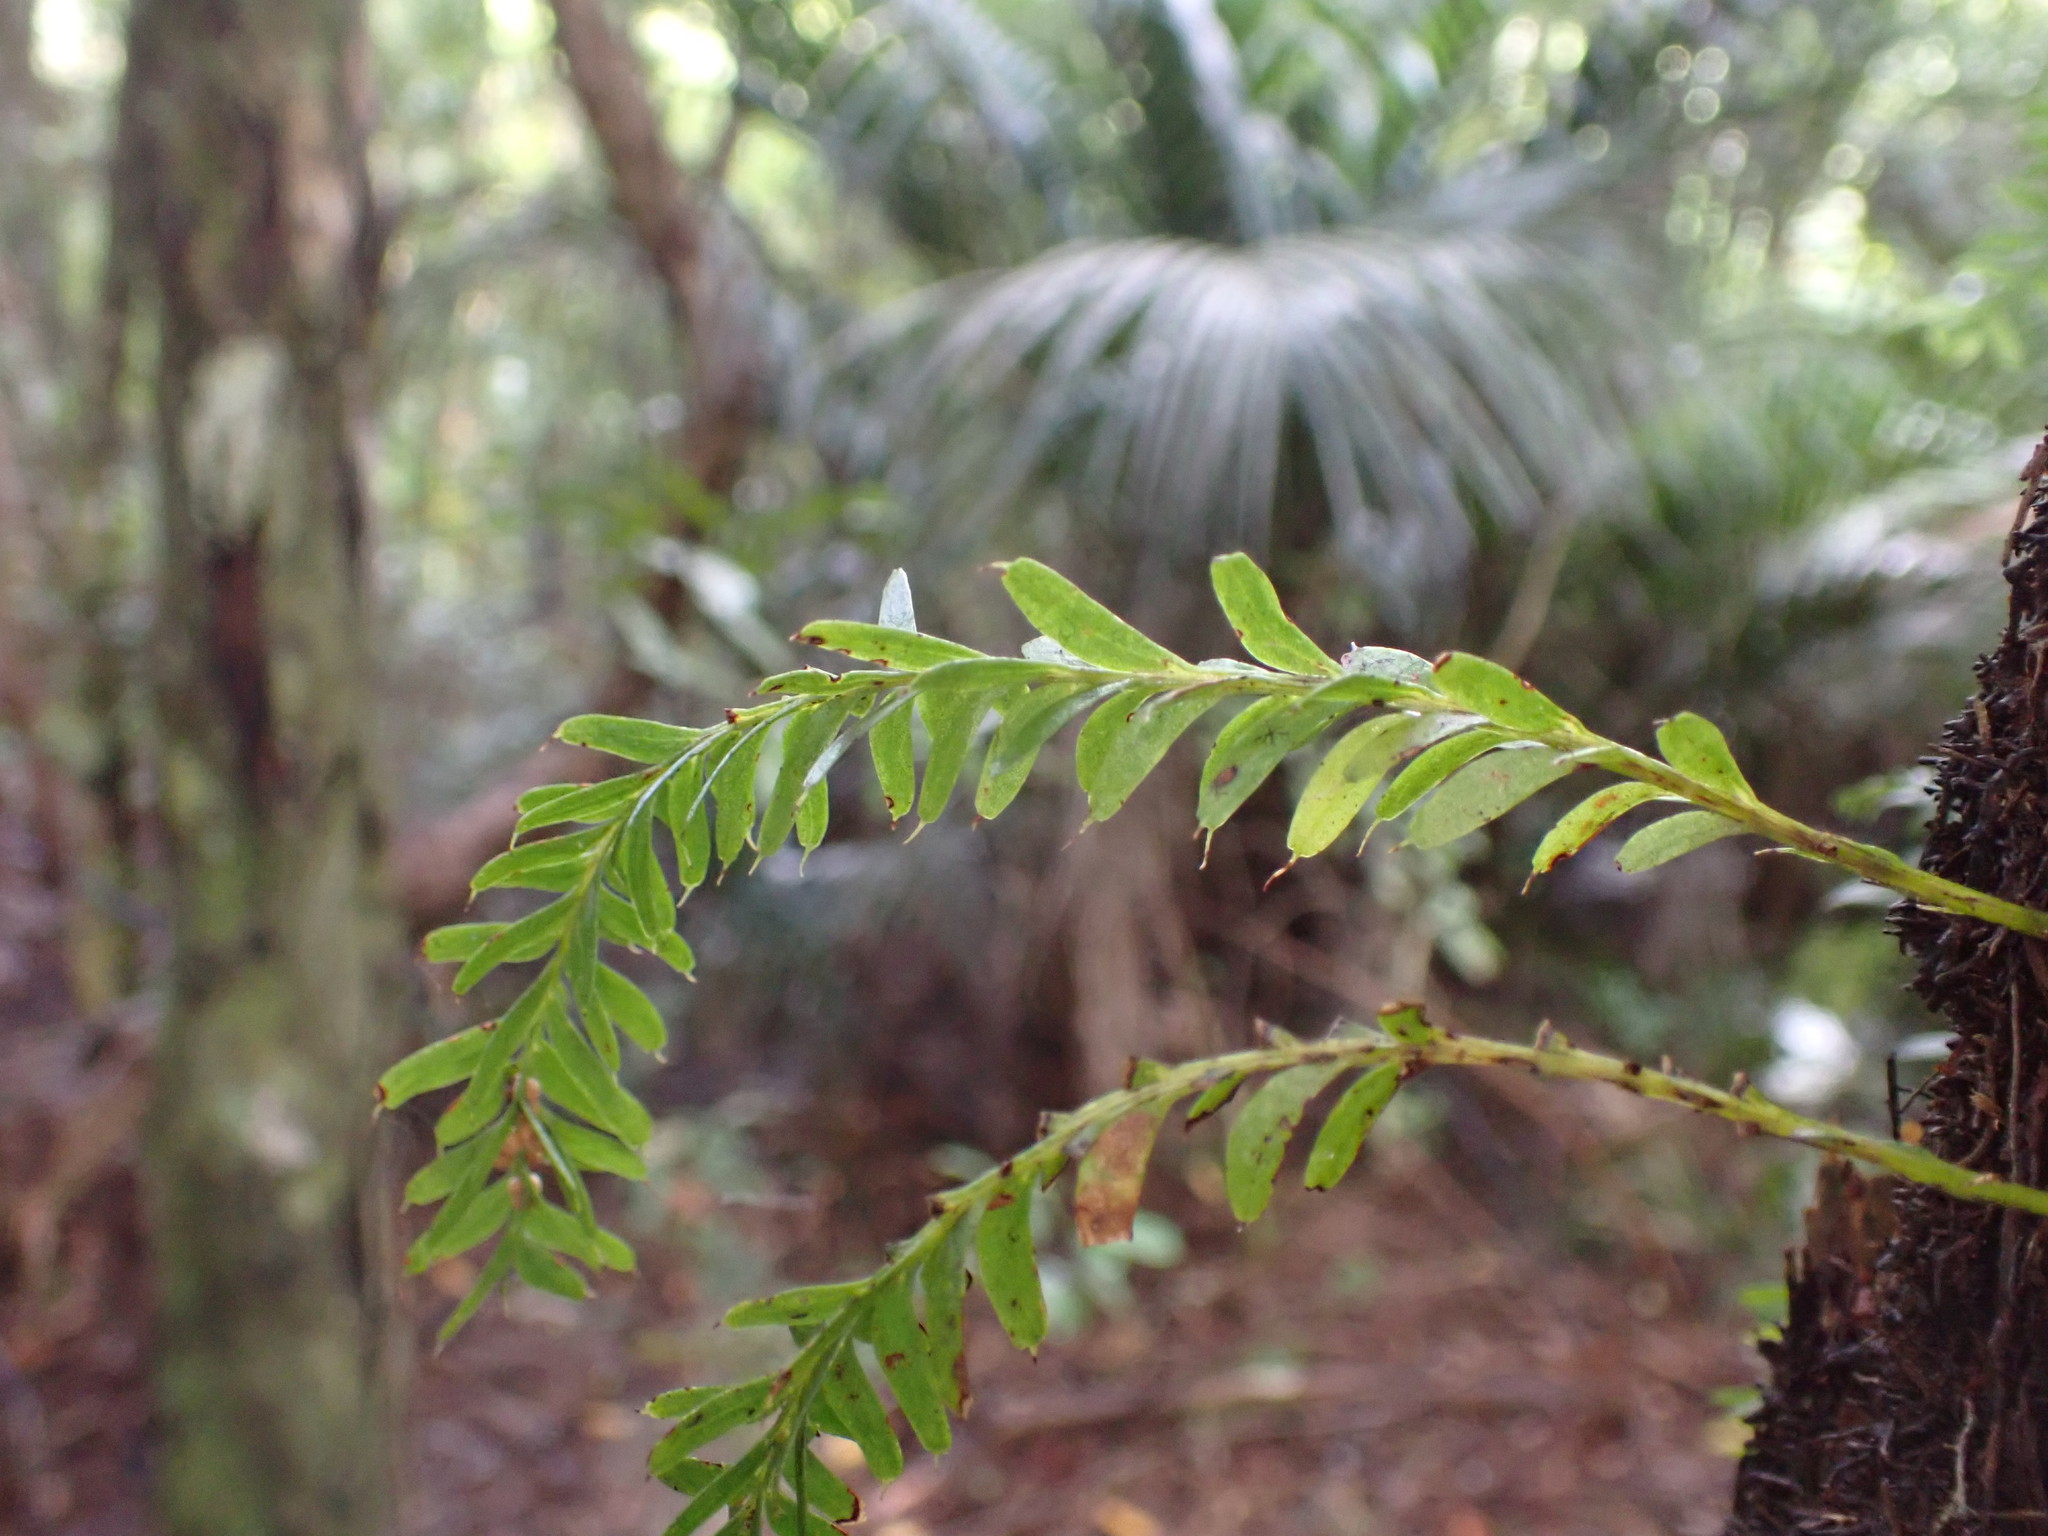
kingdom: Plantae
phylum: Tracheophyta
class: Polypodiopsida
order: Psilotales
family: Psilotaceae
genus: Tmesipteris
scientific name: Tmesipteris sigmatifolia
